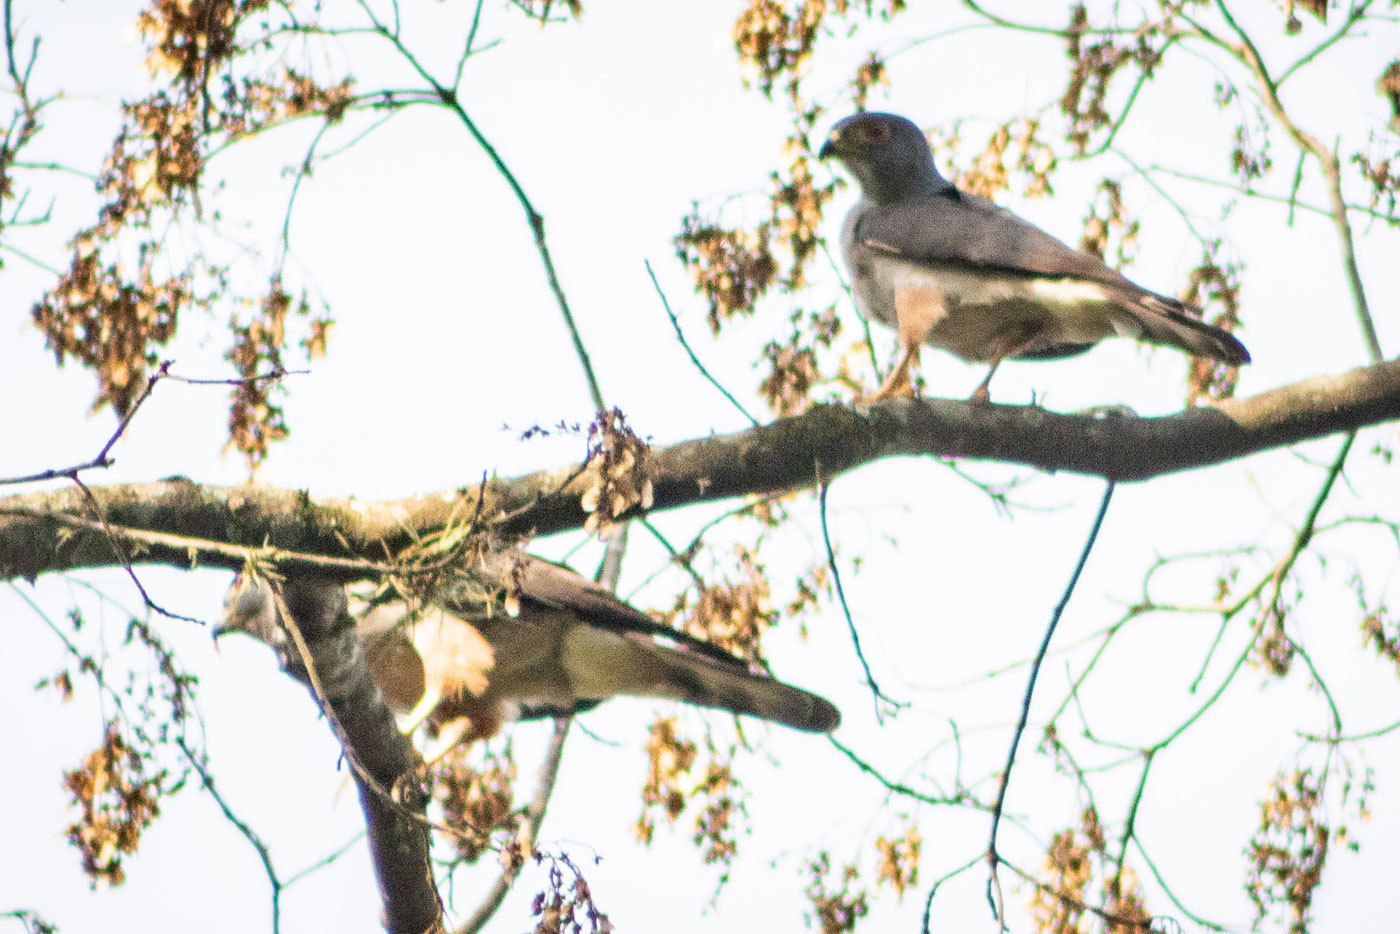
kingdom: Animalia
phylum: Chordata
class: Aves
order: Accipitriformes
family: Accipitridae
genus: Harpagus
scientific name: Harpagus diodon
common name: Rufous-thighed kite
